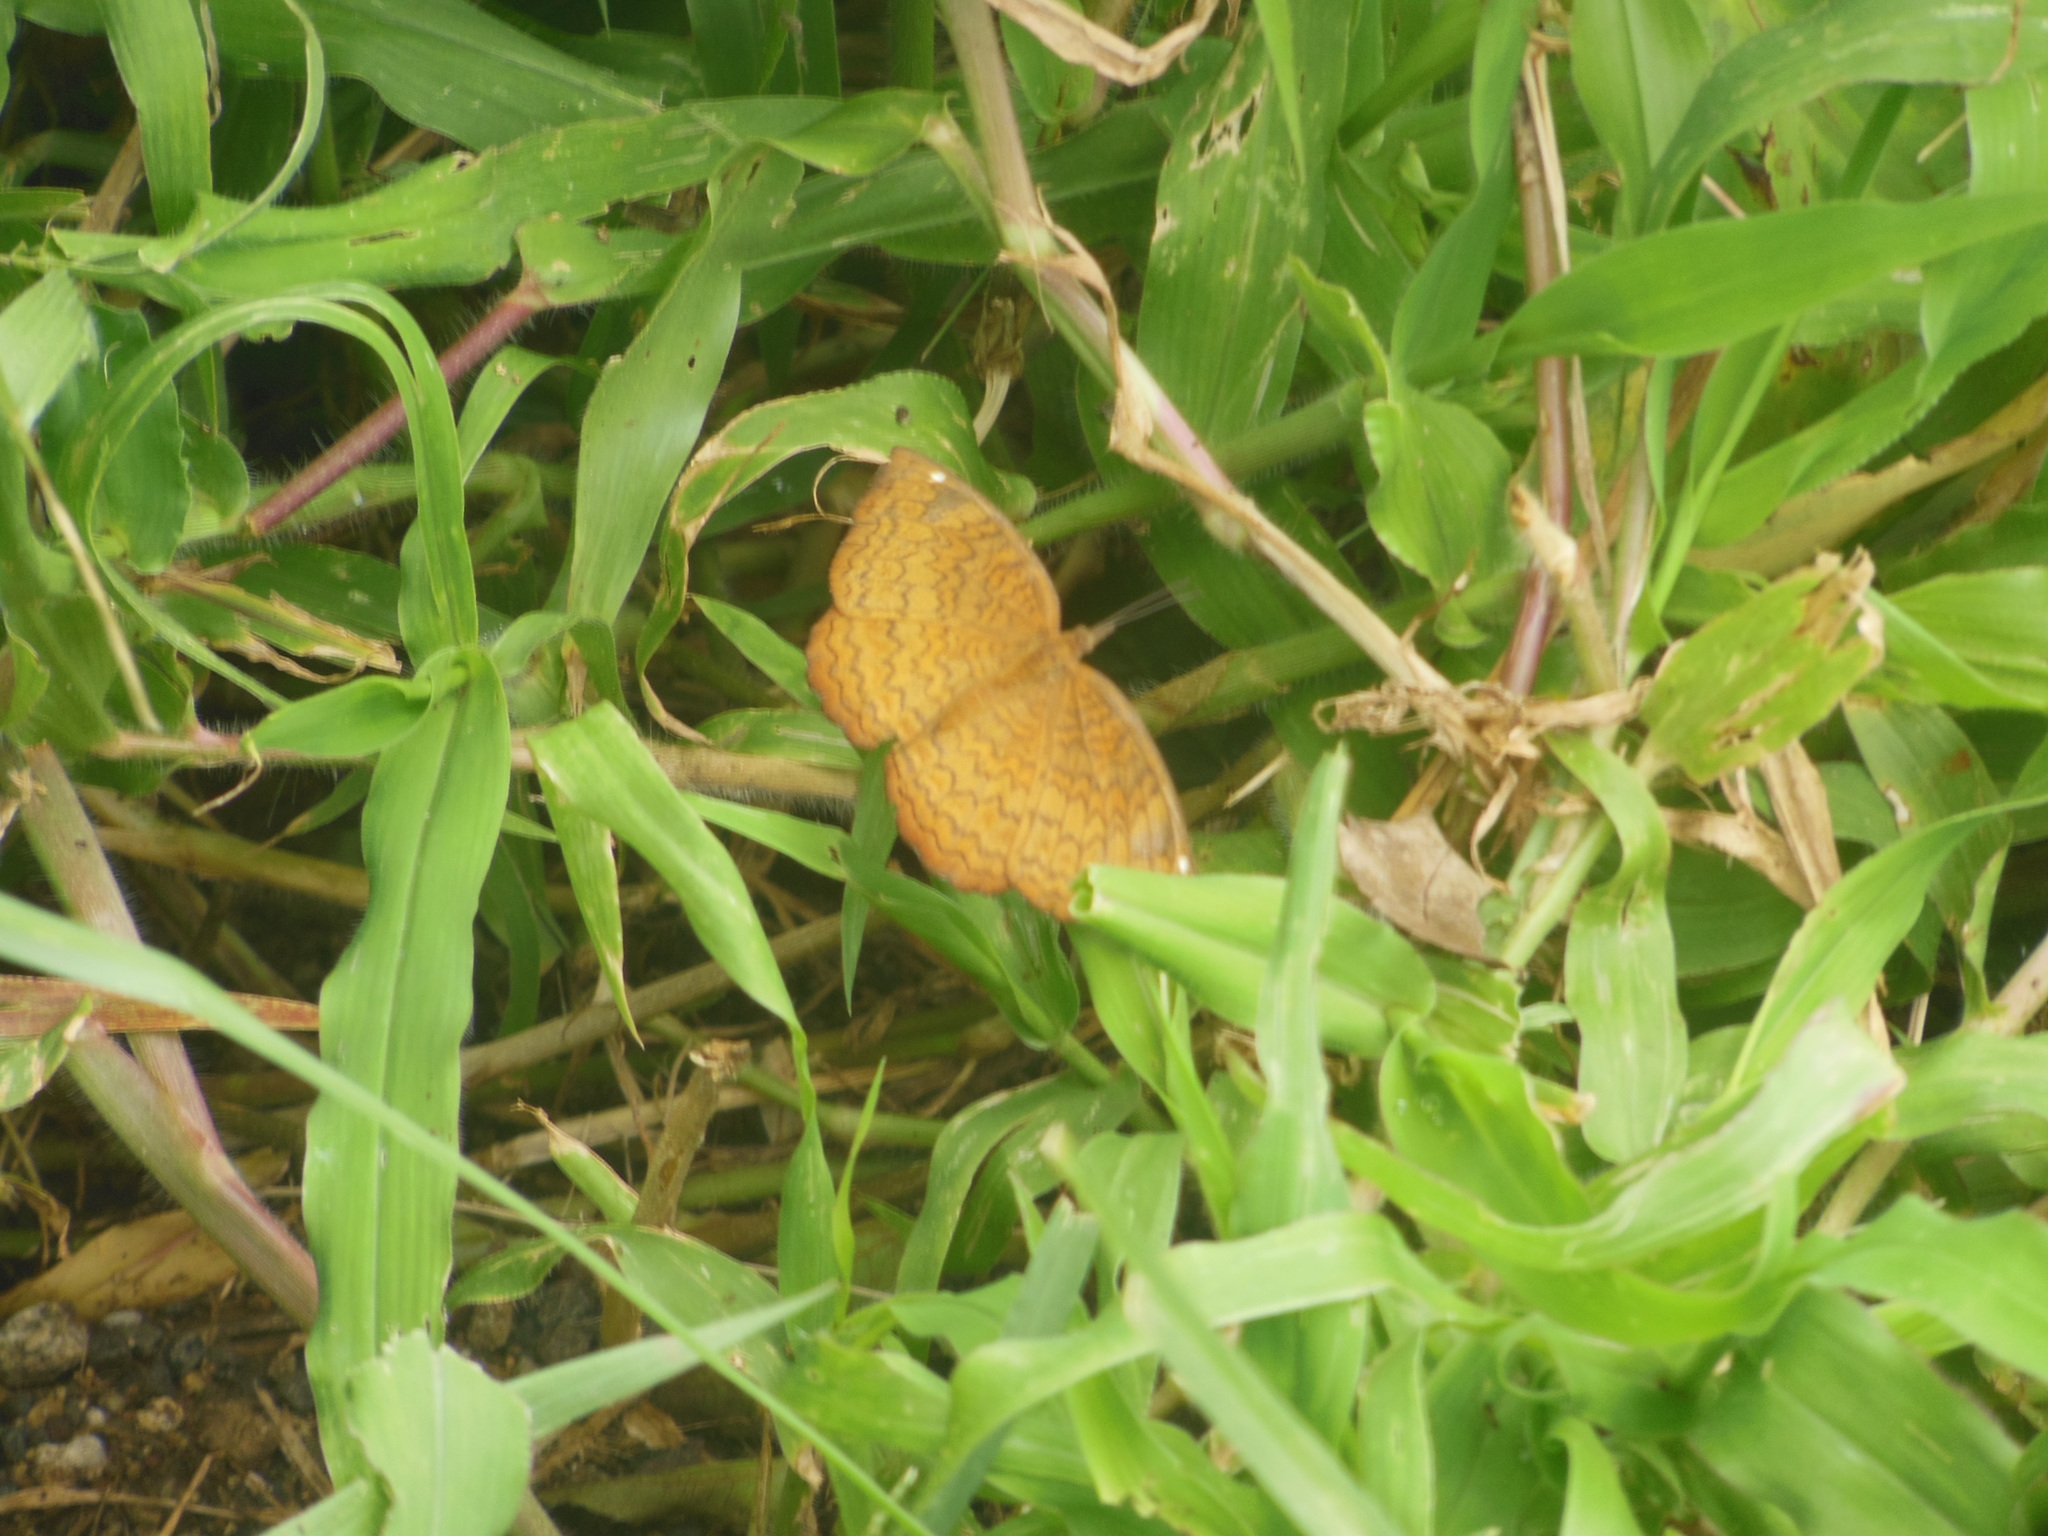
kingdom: Animalia
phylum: Arthropoda
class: Insecta
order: Lepidoptera
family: Nymphalidae
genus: Ariadne
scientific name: Ariadne merione
